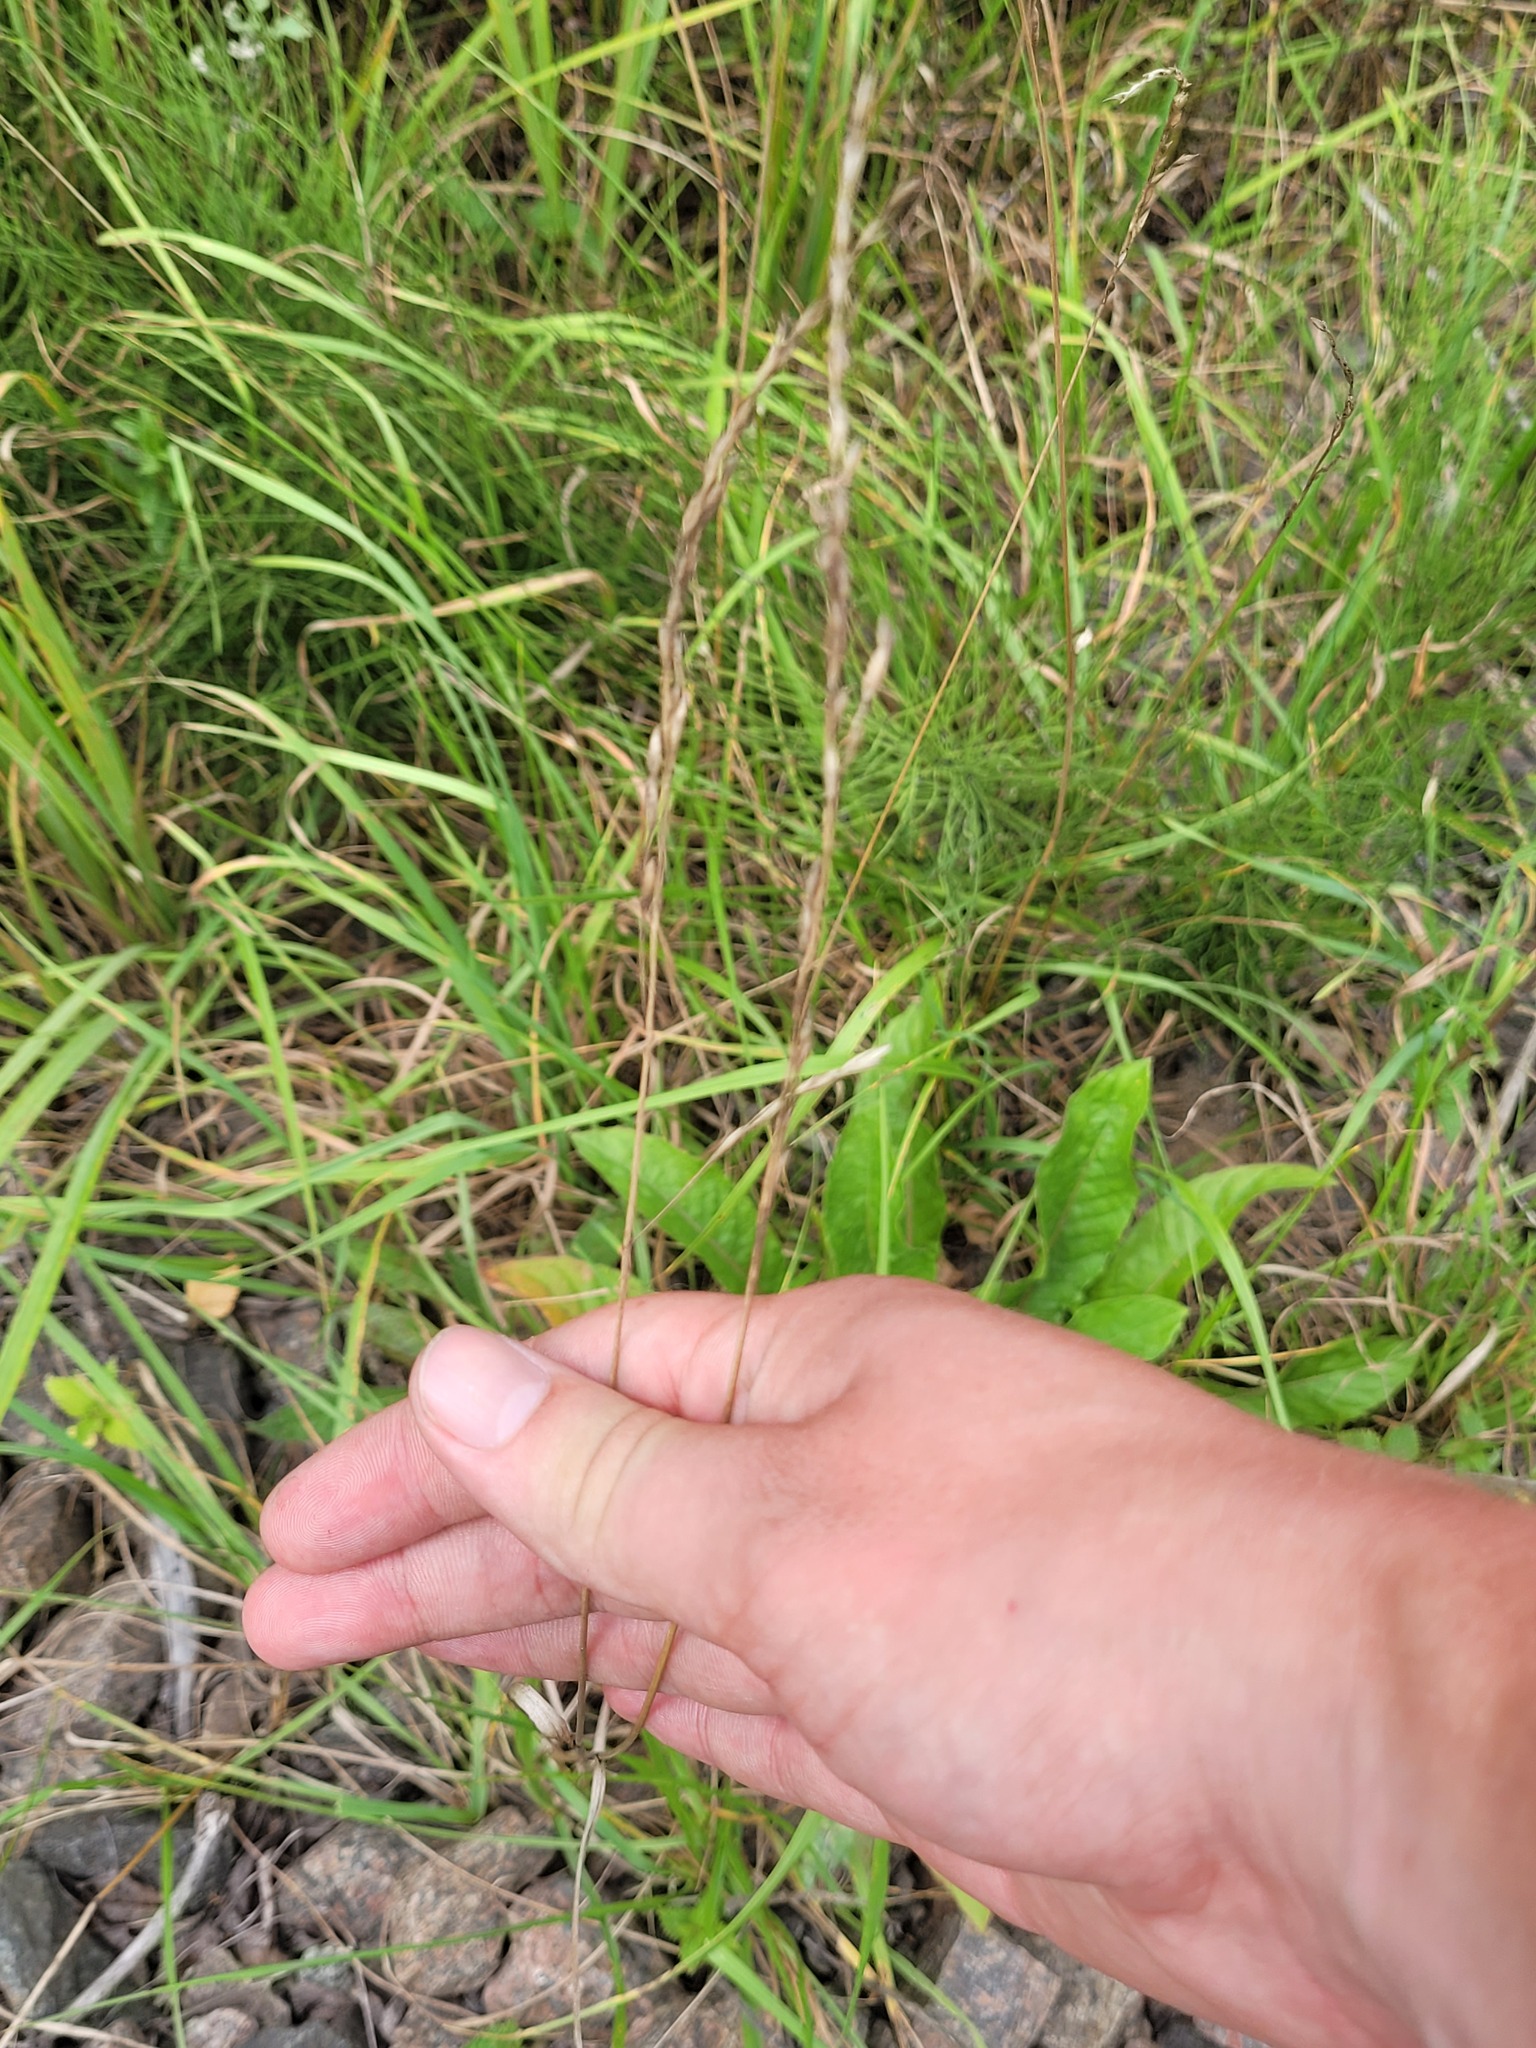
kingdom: Plantae
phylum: Tracheophyta
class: Liliopsida
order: Poales
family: Poaceae
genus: Lolium
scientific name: Lolium pratense
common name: Dover grass
